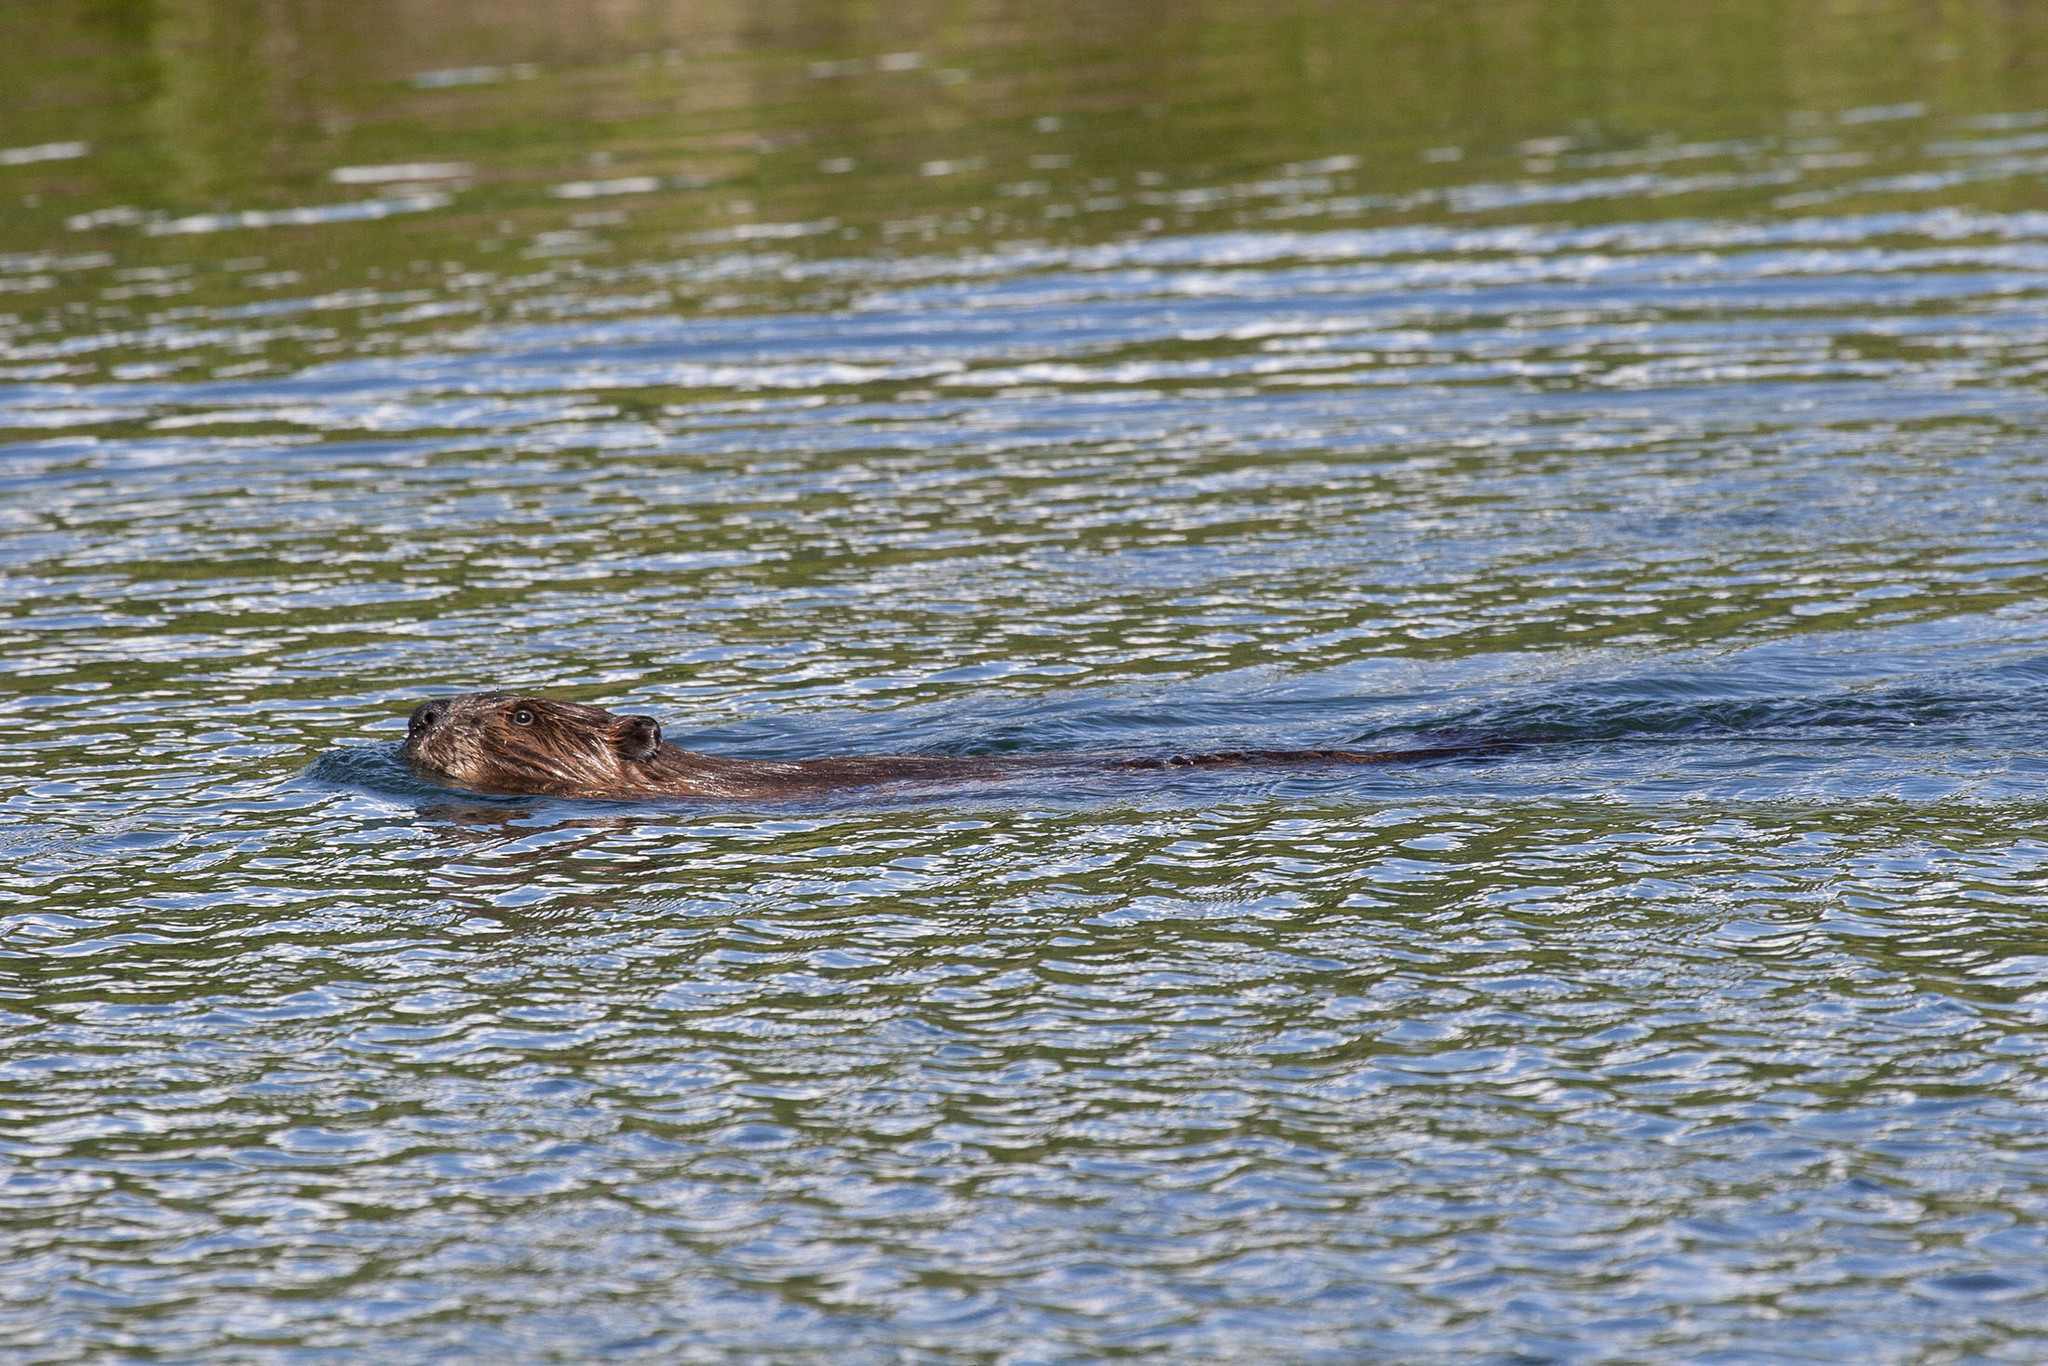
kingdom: Animalia
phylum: Chordata
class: Mammalia
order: Rodentia
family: Castoridae
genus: Castor
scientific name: Castor canadensis
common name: American beaver
